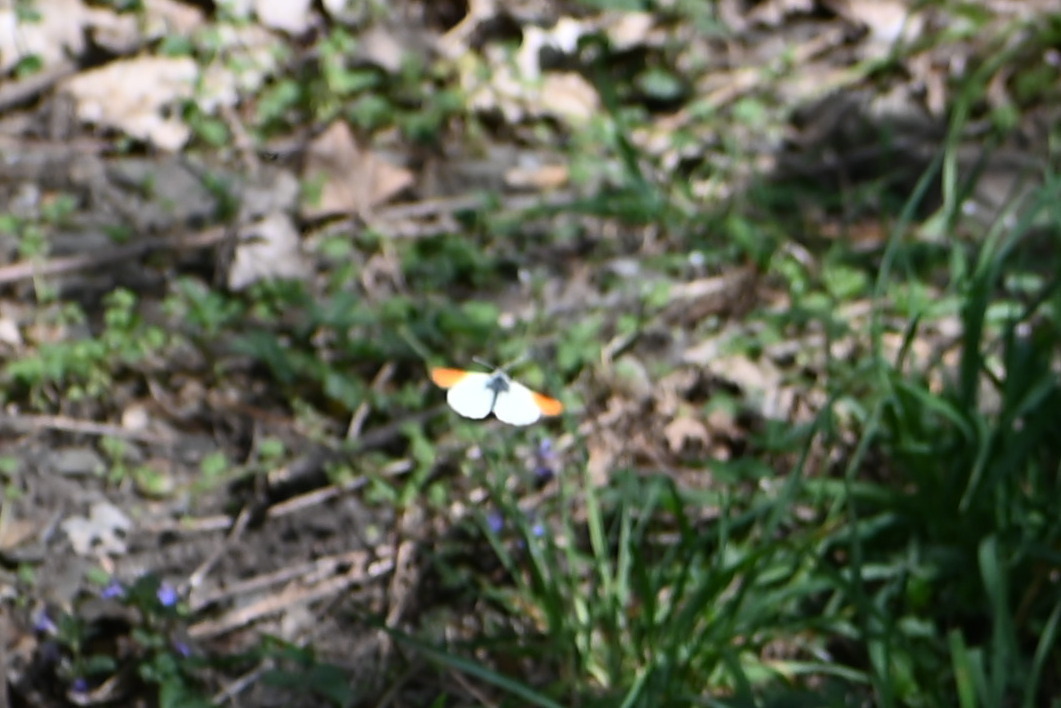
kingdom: Animalia
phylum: Arthropoda
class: Insecta
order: Lepidoptera
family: Pieridae
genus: Anthocharis
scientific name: Anthocharis cardamines
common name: Orange-tip
